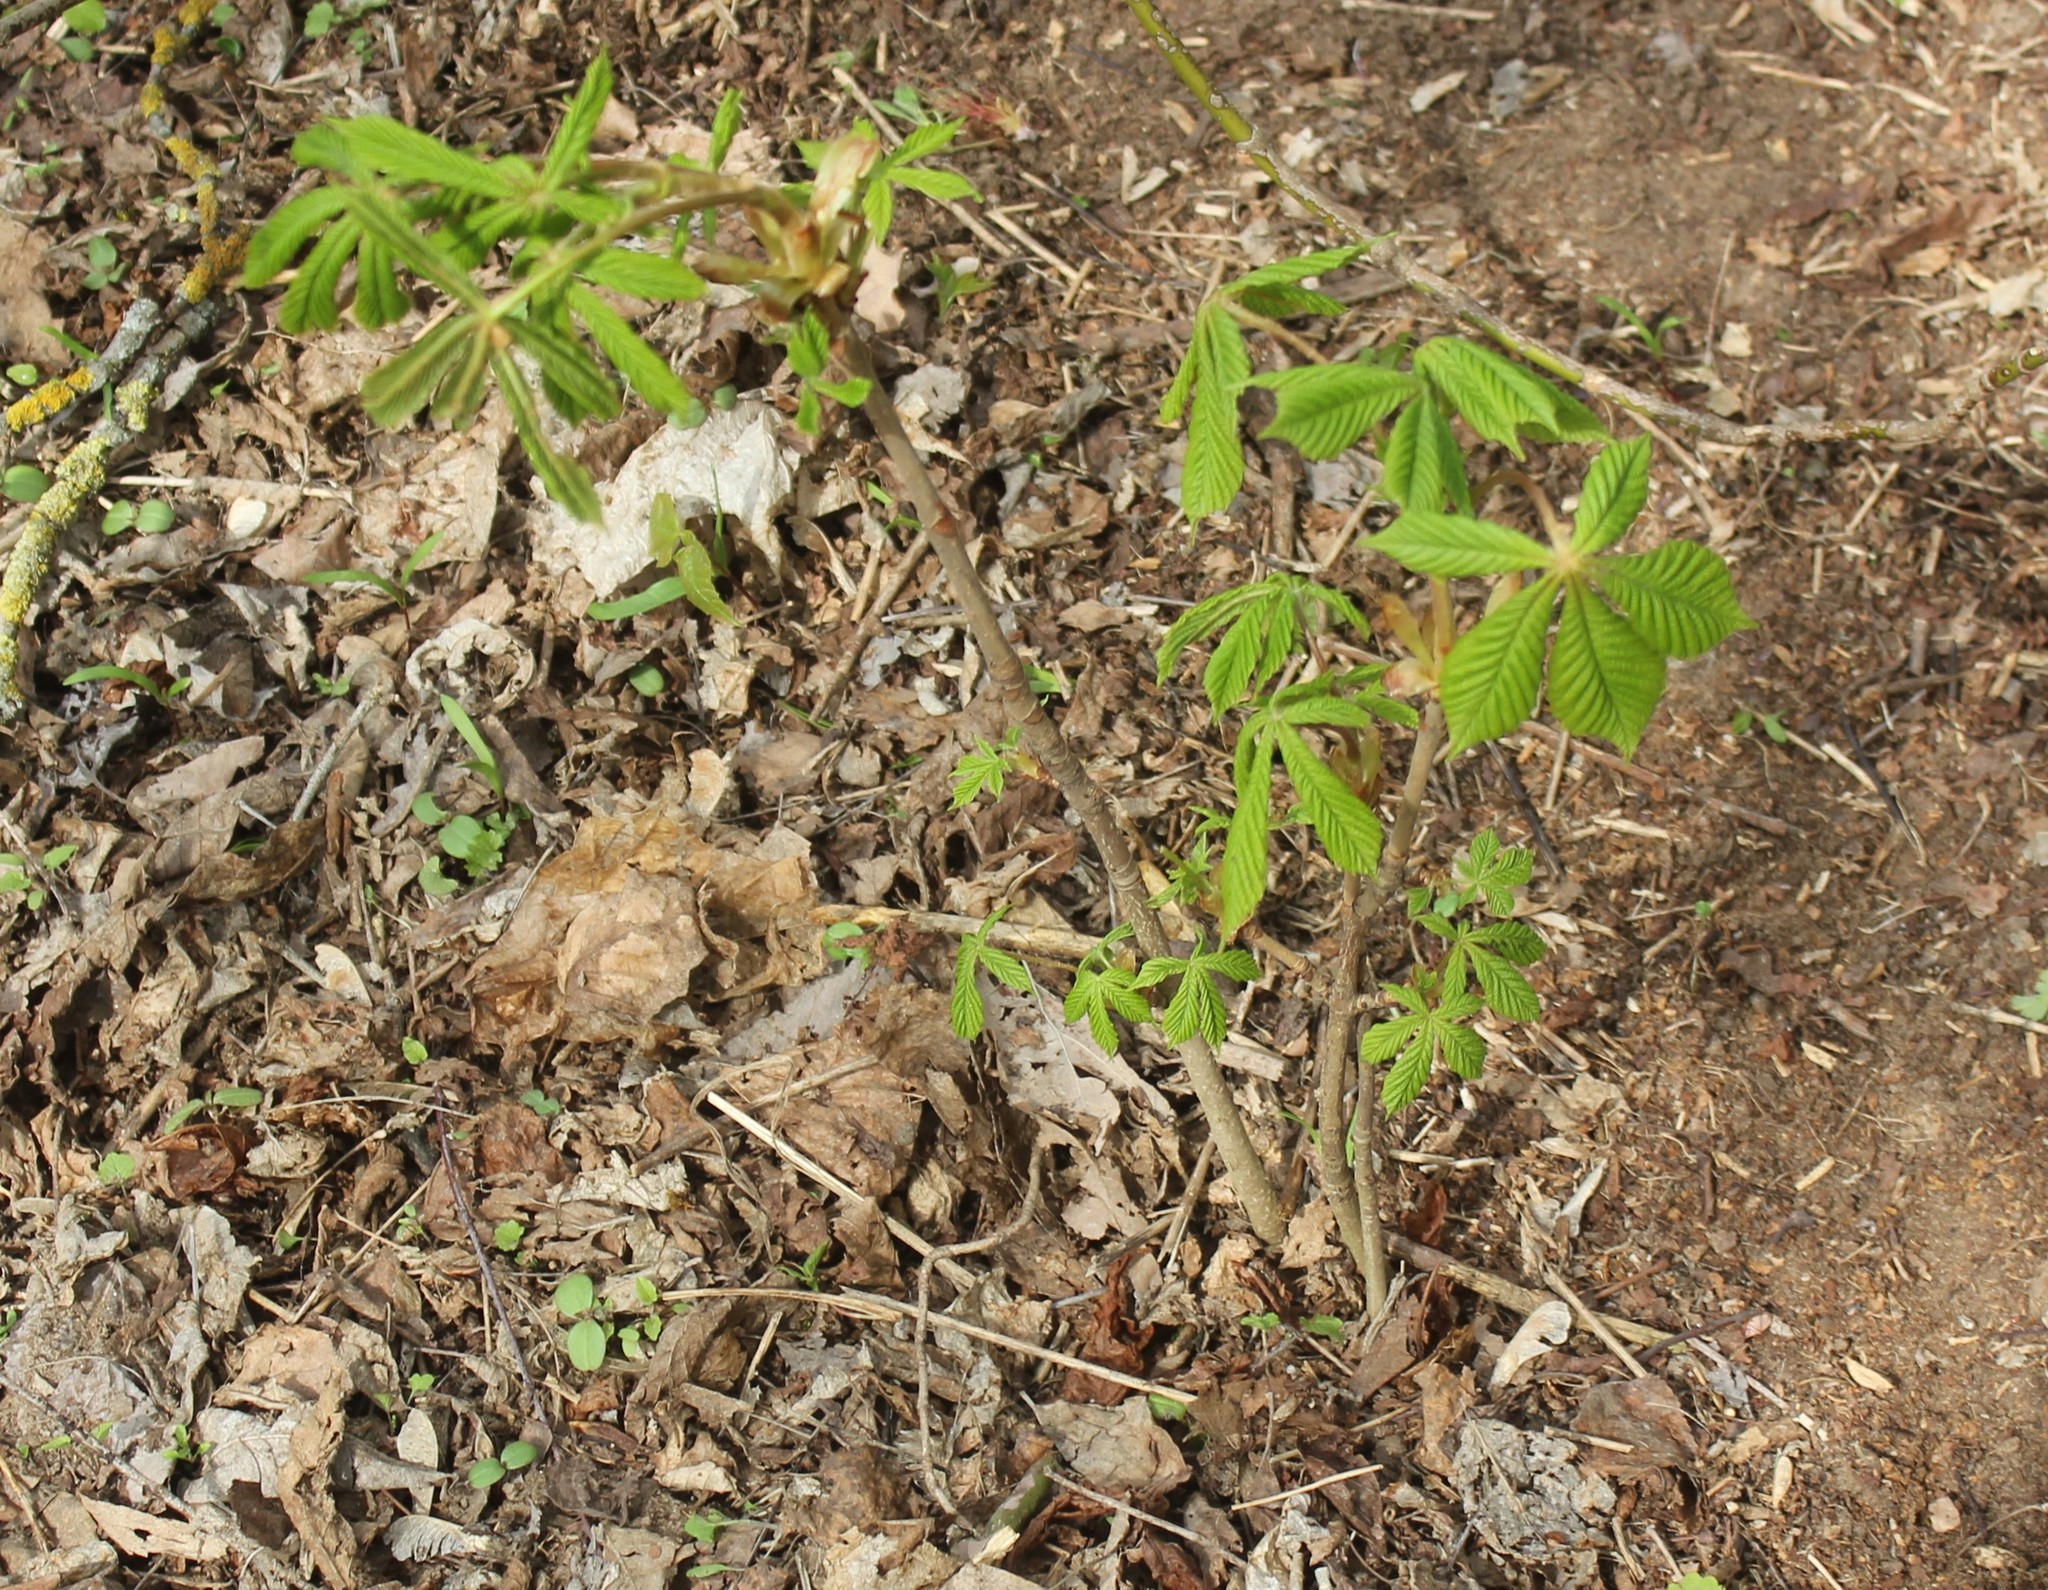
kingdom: Plantae
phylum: Tracheophyta
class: Magnoliopsida
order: Sapindales
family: Sapindaceae
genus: Aesculus
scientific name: Aesculus hippocastanum
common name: Horse-chestnut
